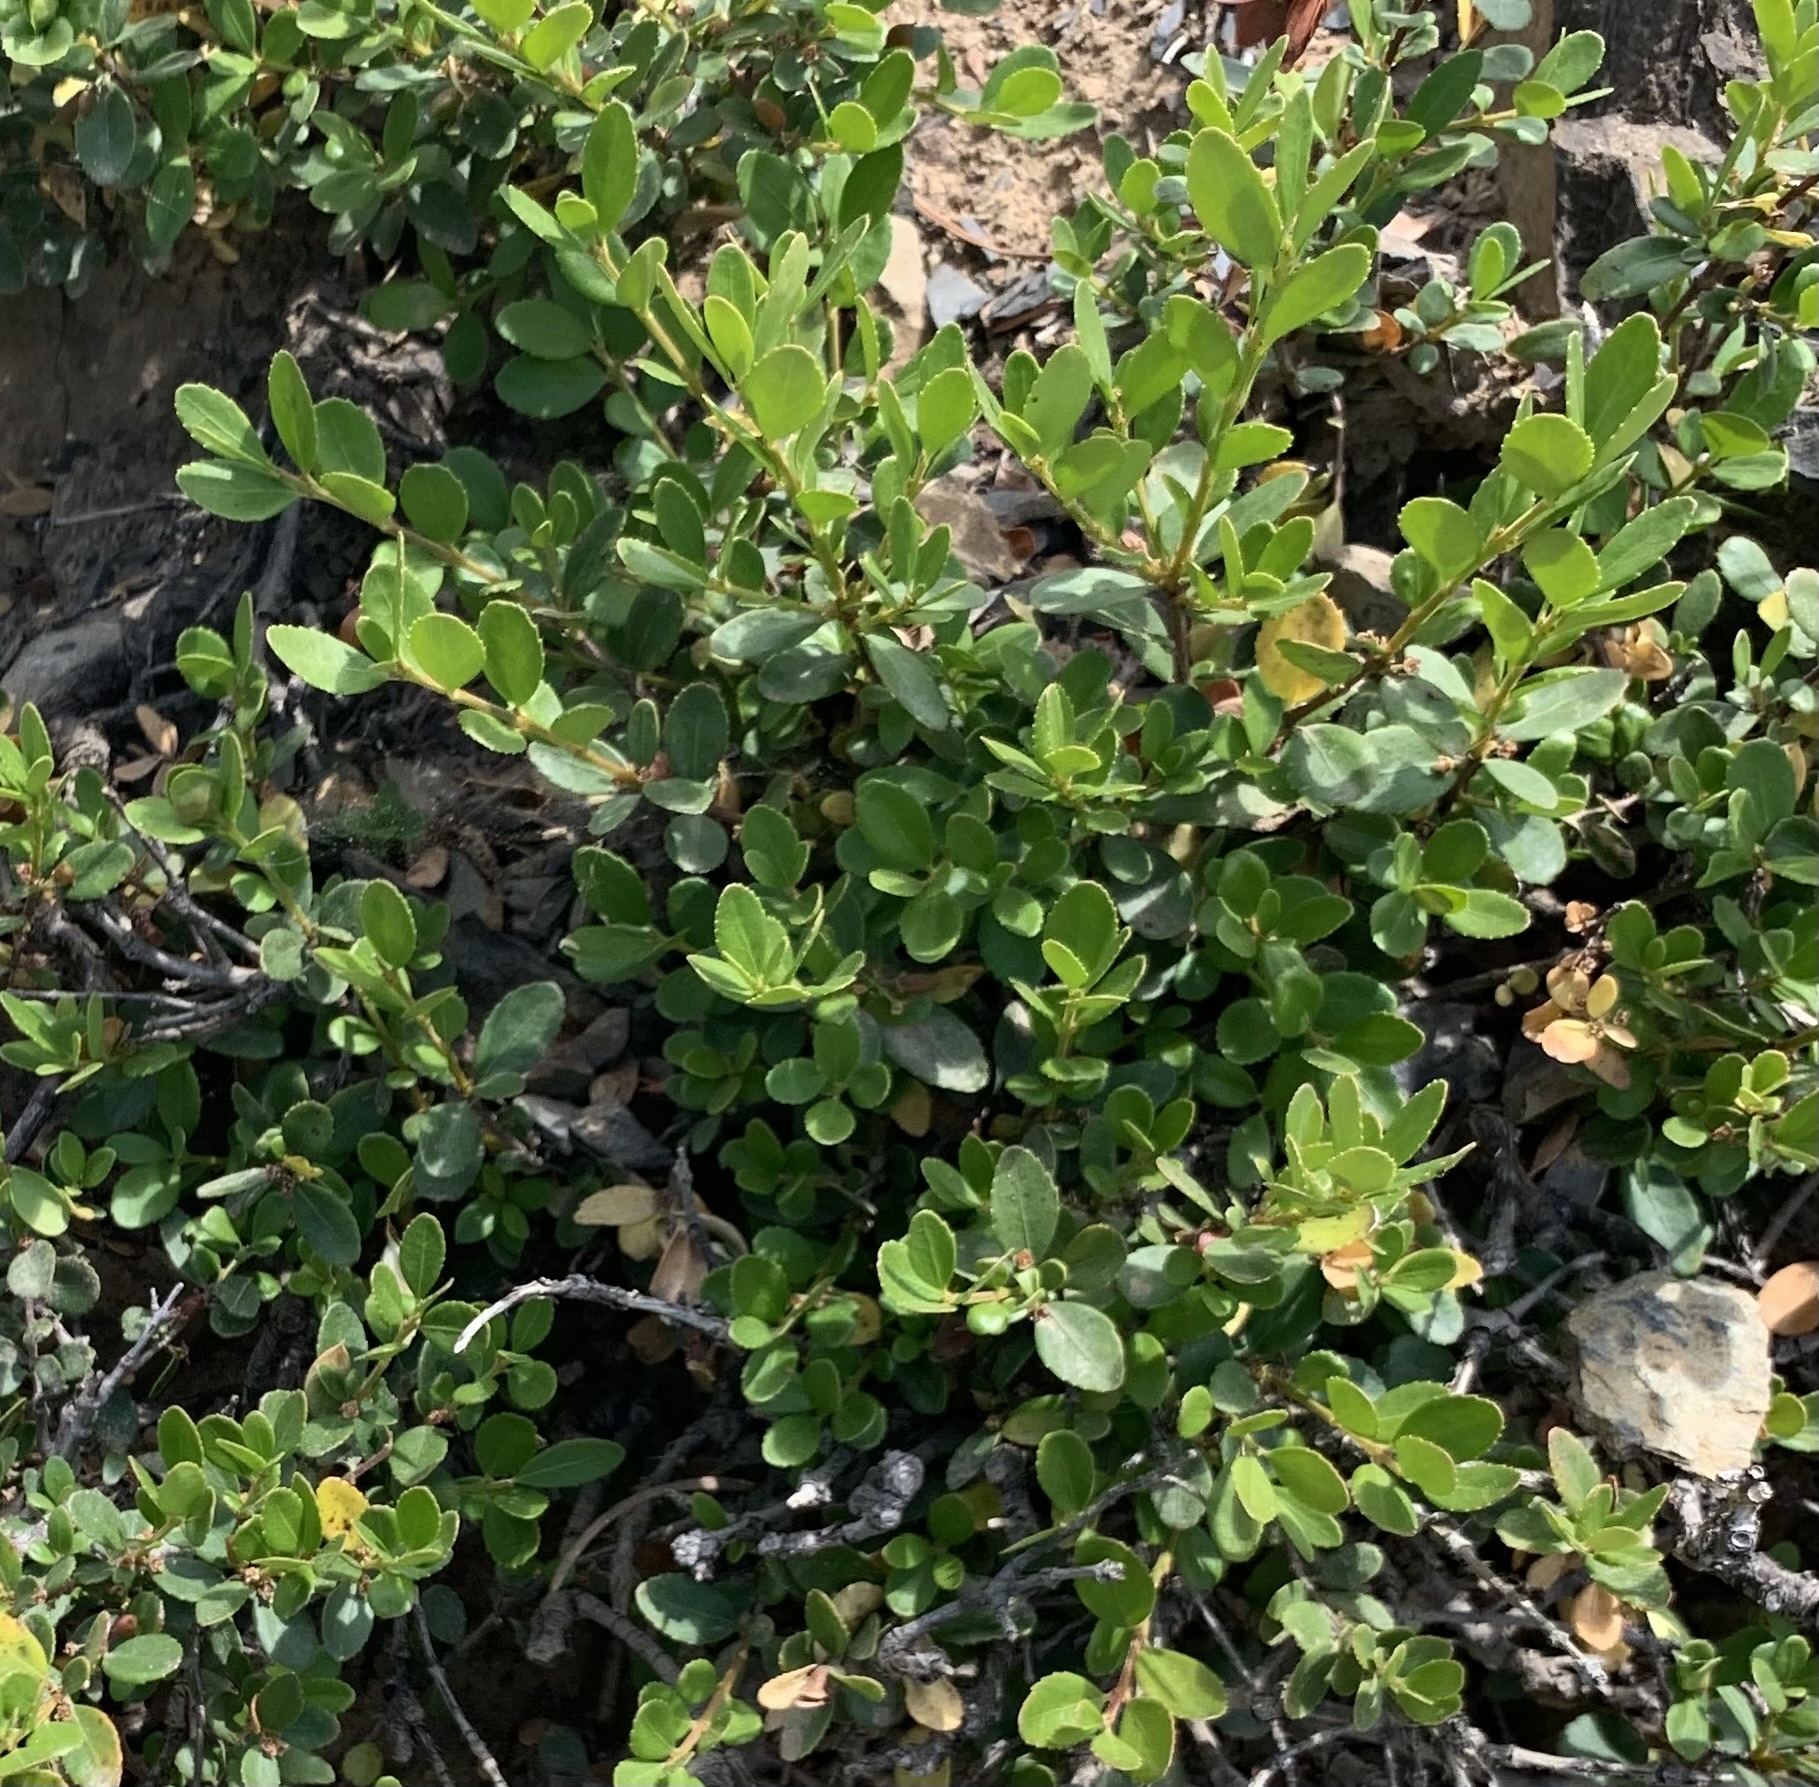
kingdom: Plantae
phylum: Tracheophyta
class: Magnoliopsida
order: Celastrales
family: Celastraceae
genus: Paxistima
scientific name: Paxistima myrsinites
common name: Mountain-lover
